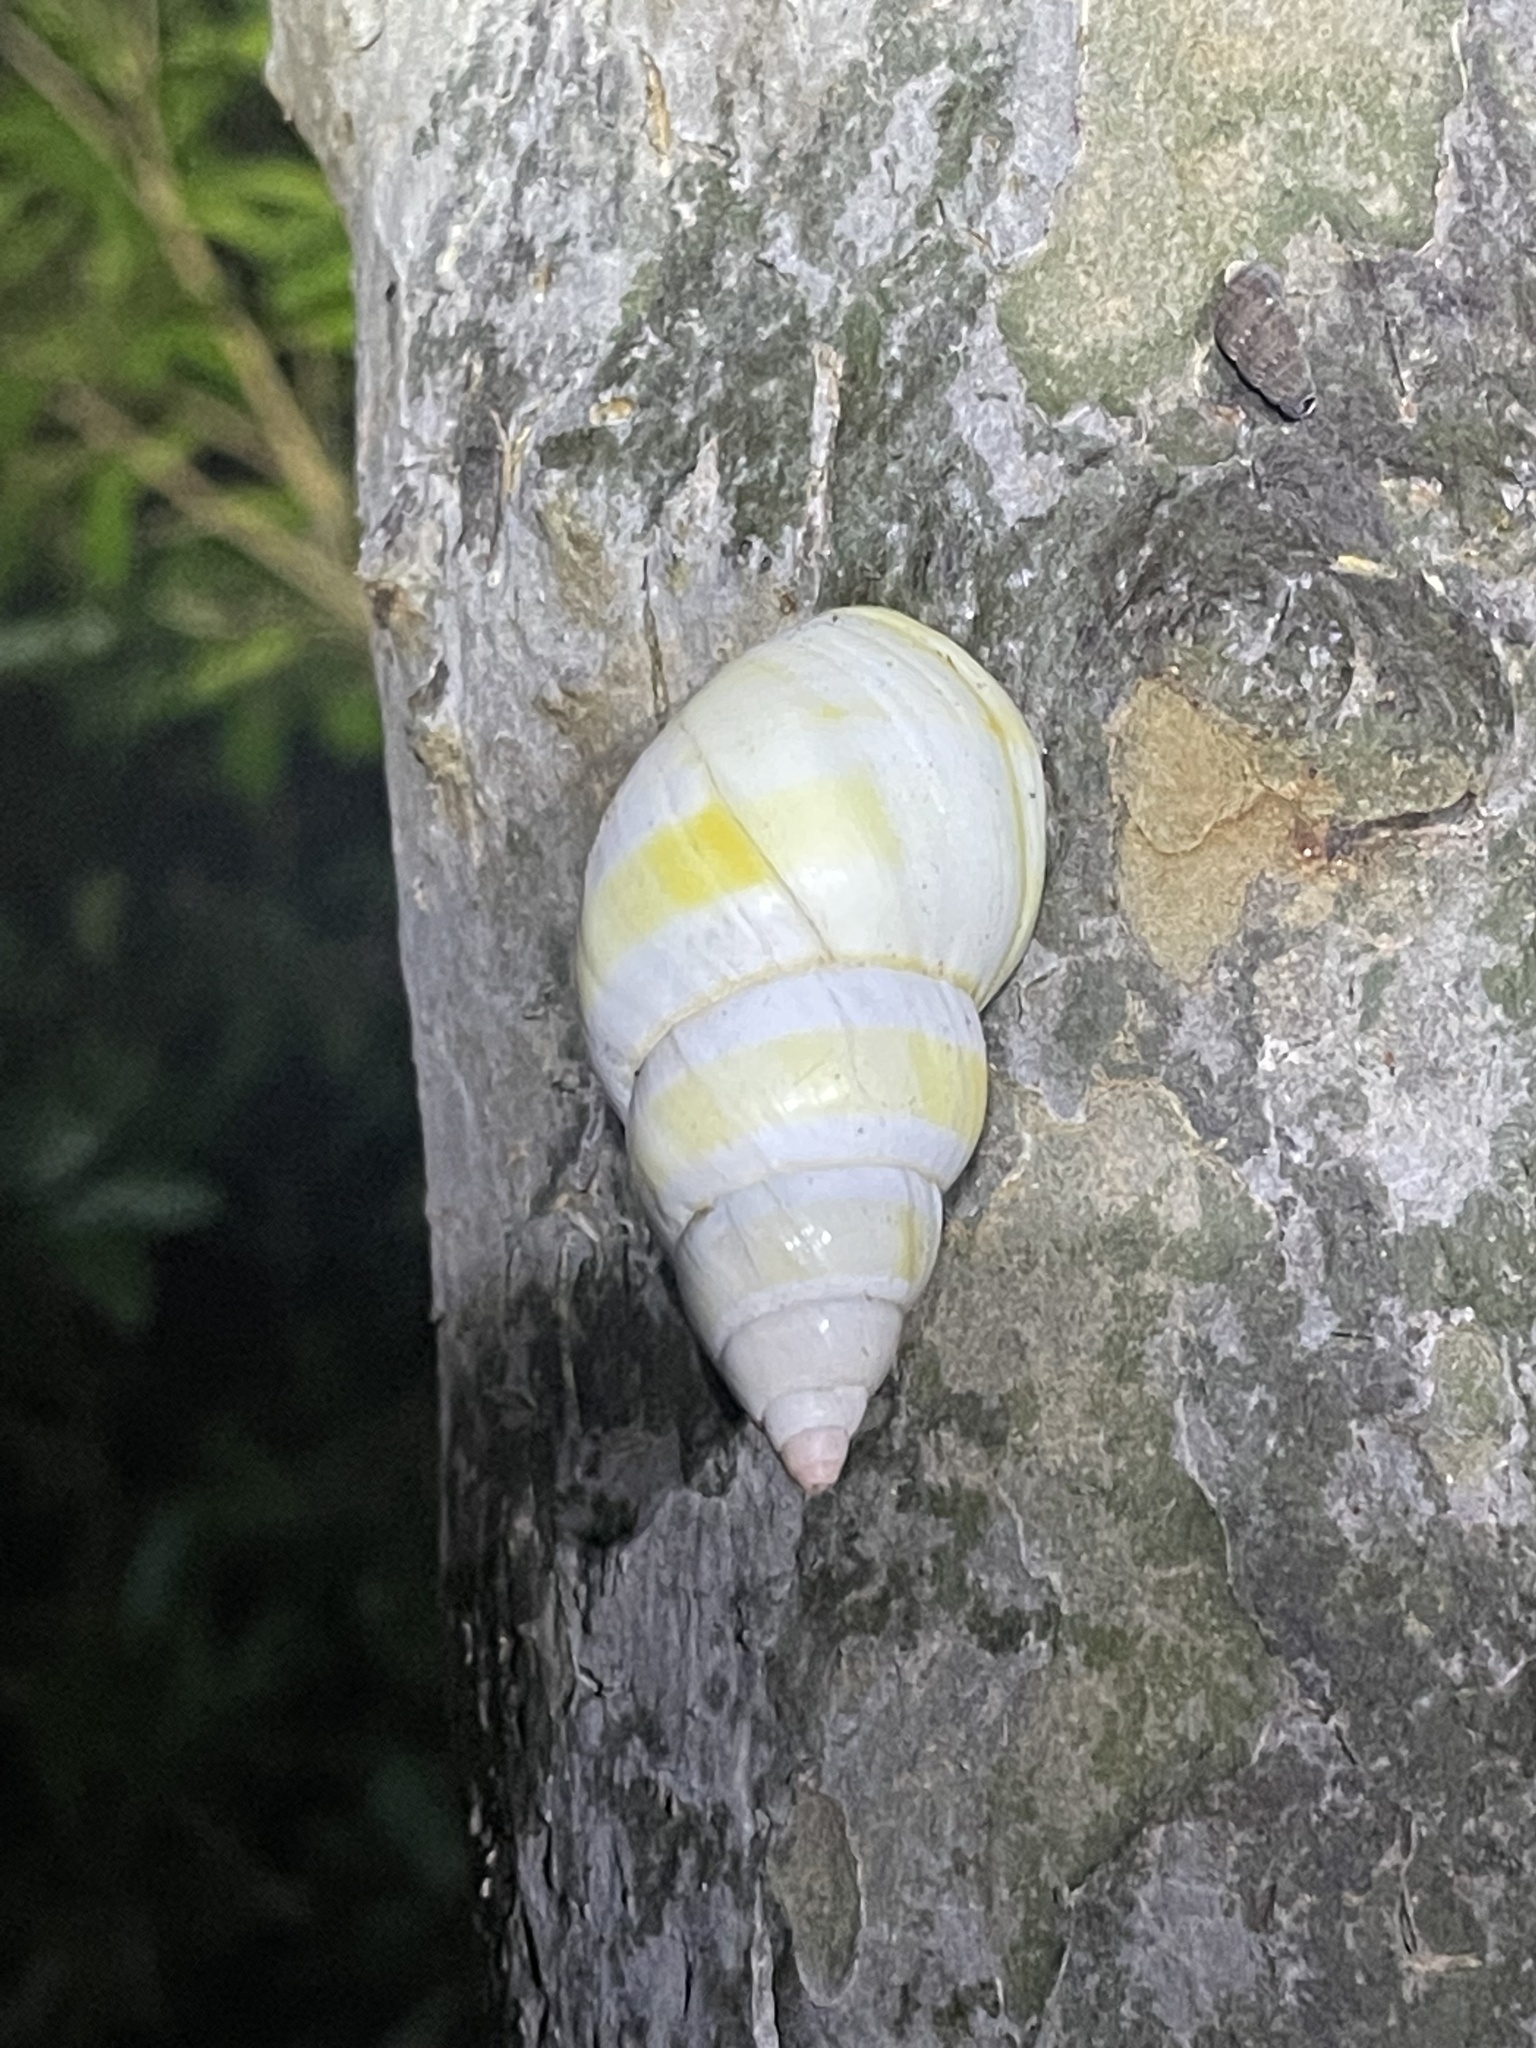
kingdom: Animalia
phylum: Mollusca
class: Gastropoda
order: Stylommatophora
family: Orthalicidae
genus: Liguus
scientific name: Liguus fasciatus
